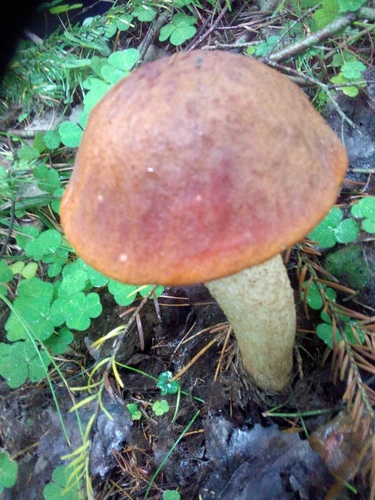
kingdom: Fungi
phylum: Basidiomycota
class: Agaricomycetes
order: Boletales
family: Boletaceae
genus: Leccinum
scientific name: Leccinum
